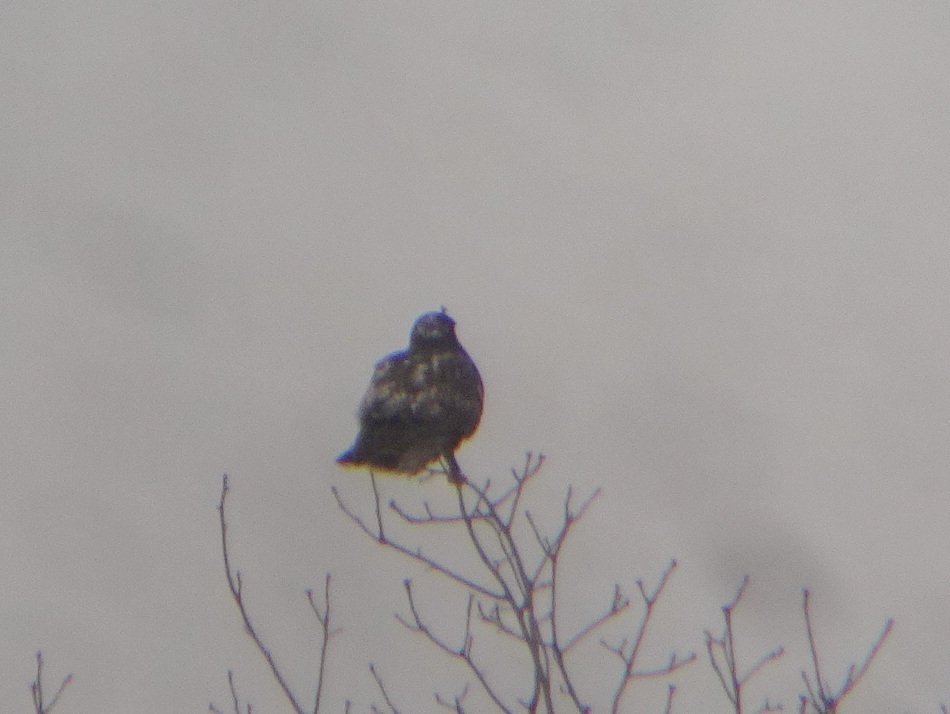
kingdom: Animalia
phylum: Chordata
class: Aves
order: Accipitriformes
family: Accipitridae
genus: Buteo
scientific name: Buteo lagopus
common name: Rough-legged buzzard
